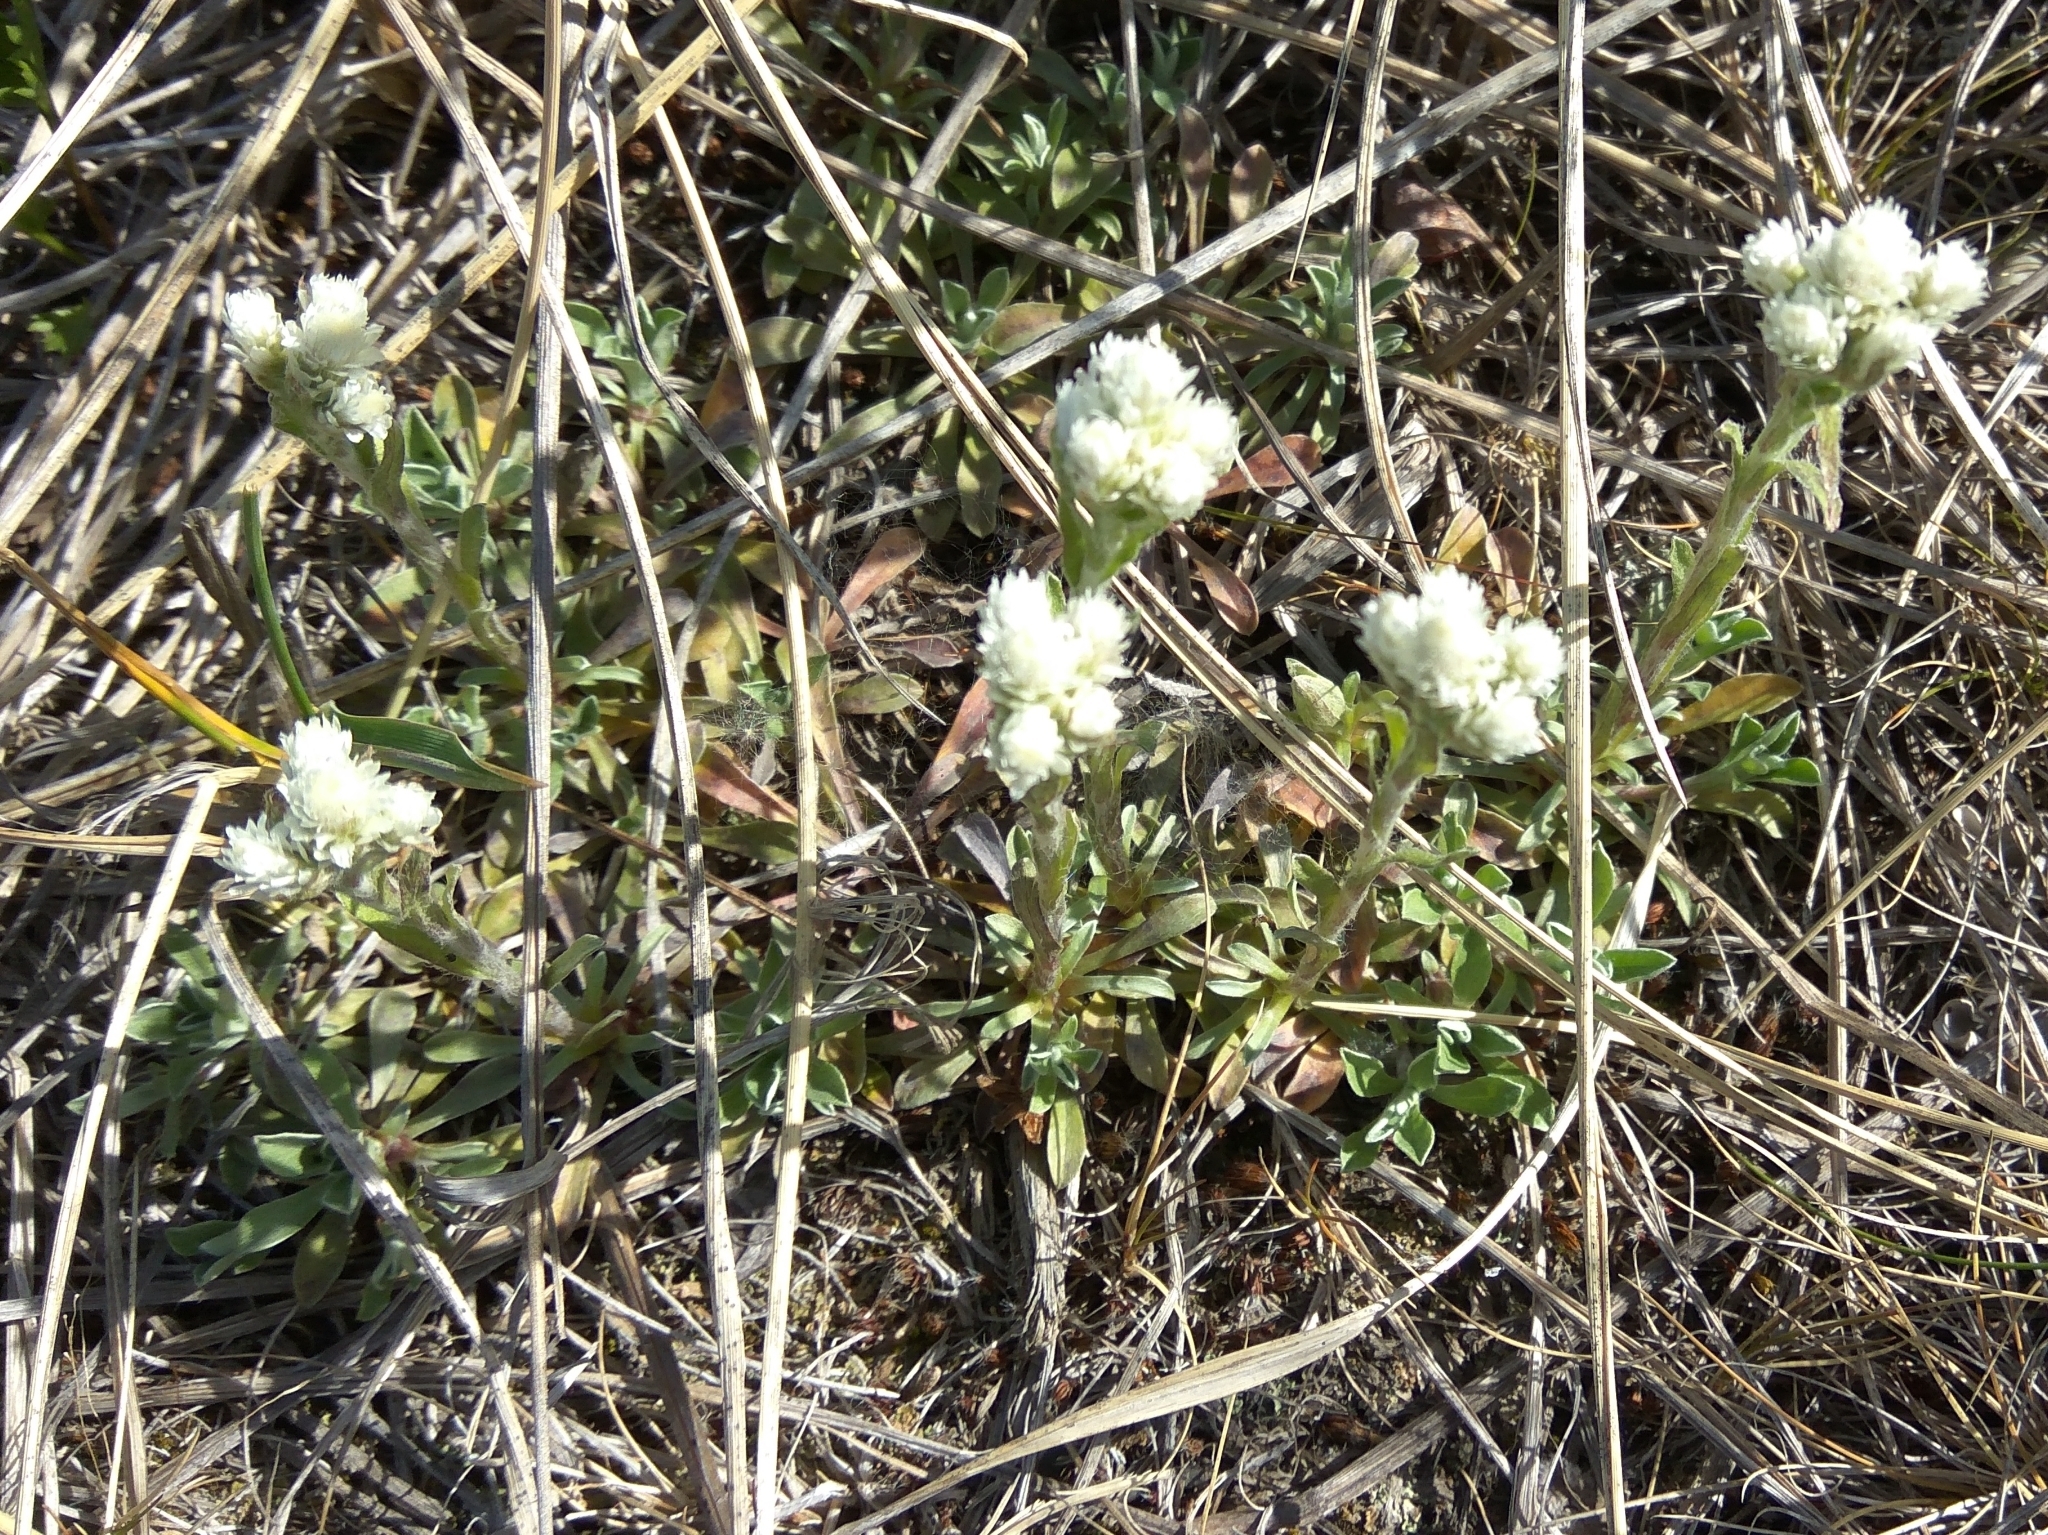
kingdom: Plantae
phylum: Tracheophyta
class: Magnoliopsida
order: Asterales
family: Asteraceae
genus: Antennaria
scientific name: Antennaria dioica
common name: Mountain everlasting
